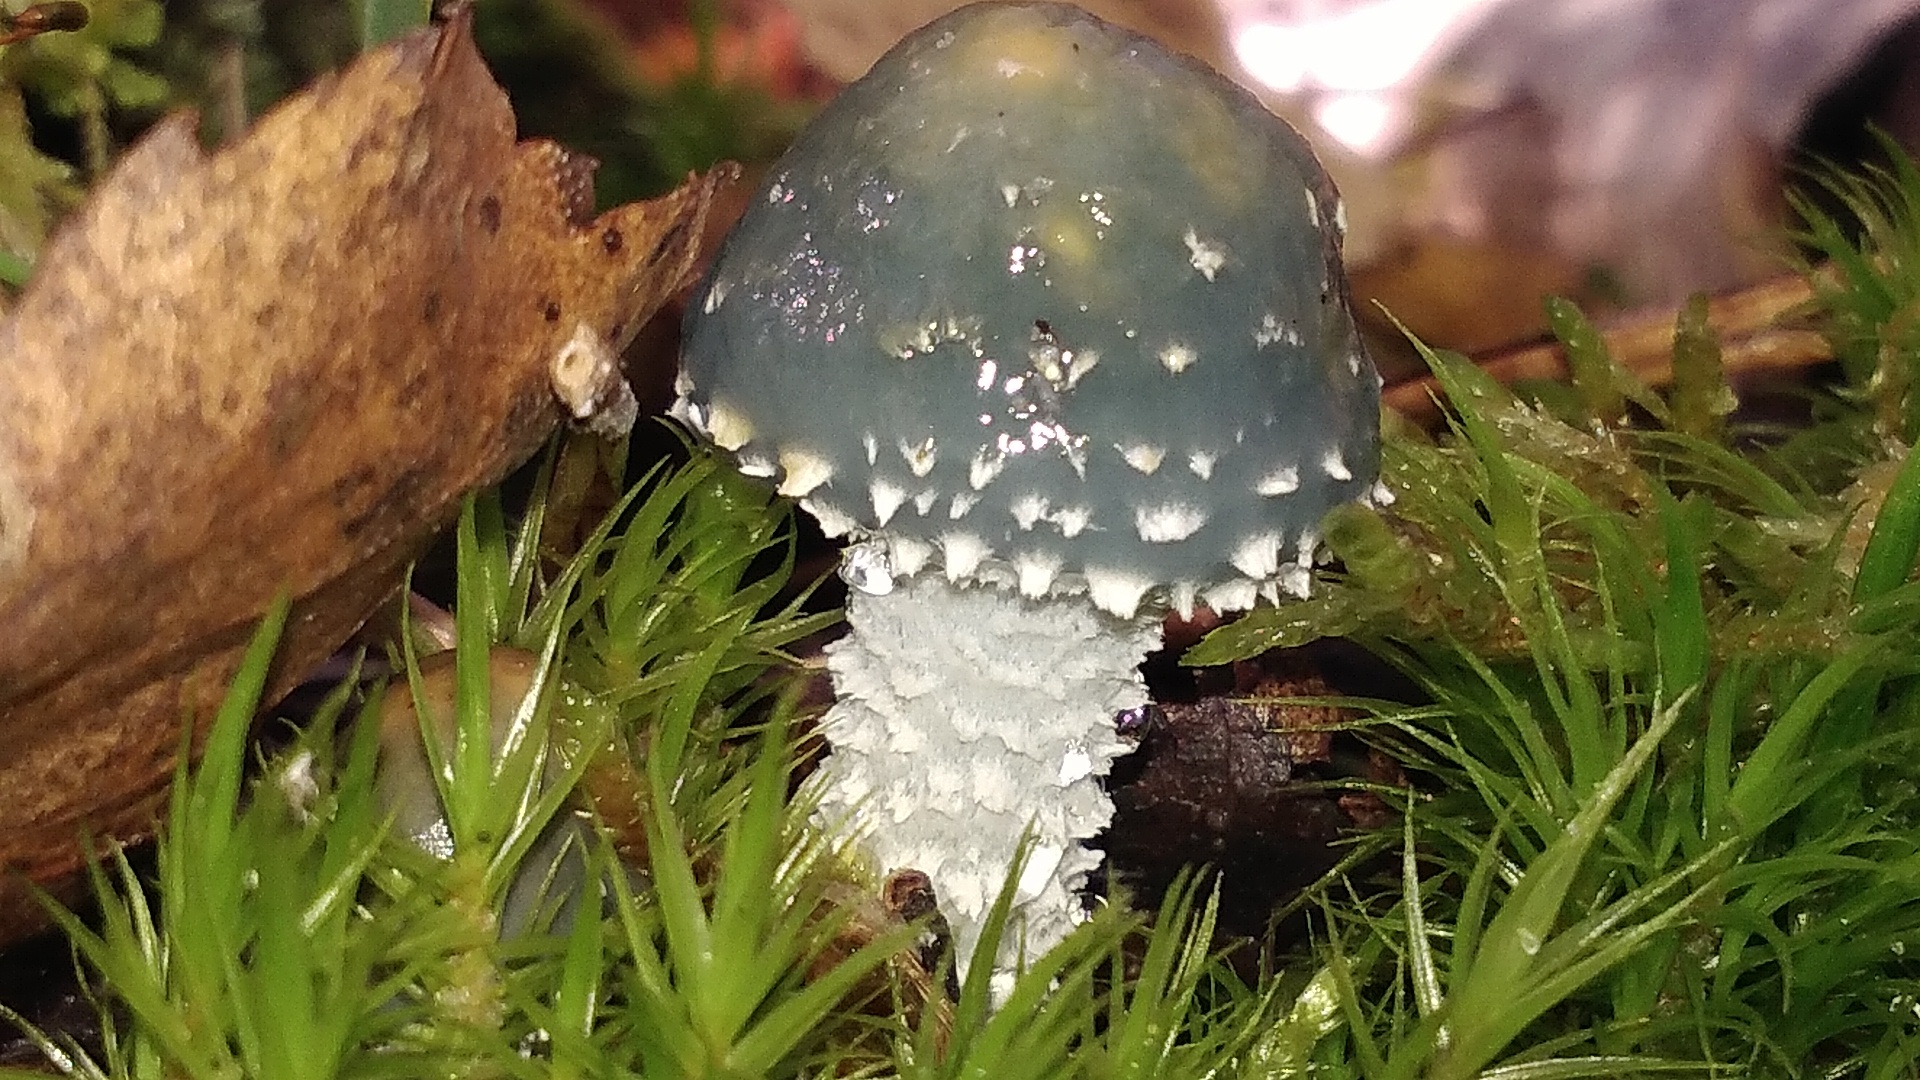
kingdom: Fungi
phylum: Basidiomycota
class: Agaricomycetes
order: Agaricales
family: Strophariaceae
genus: Stropharia
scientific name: Stropharia aeruginosa
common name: Verdigris roundhead
